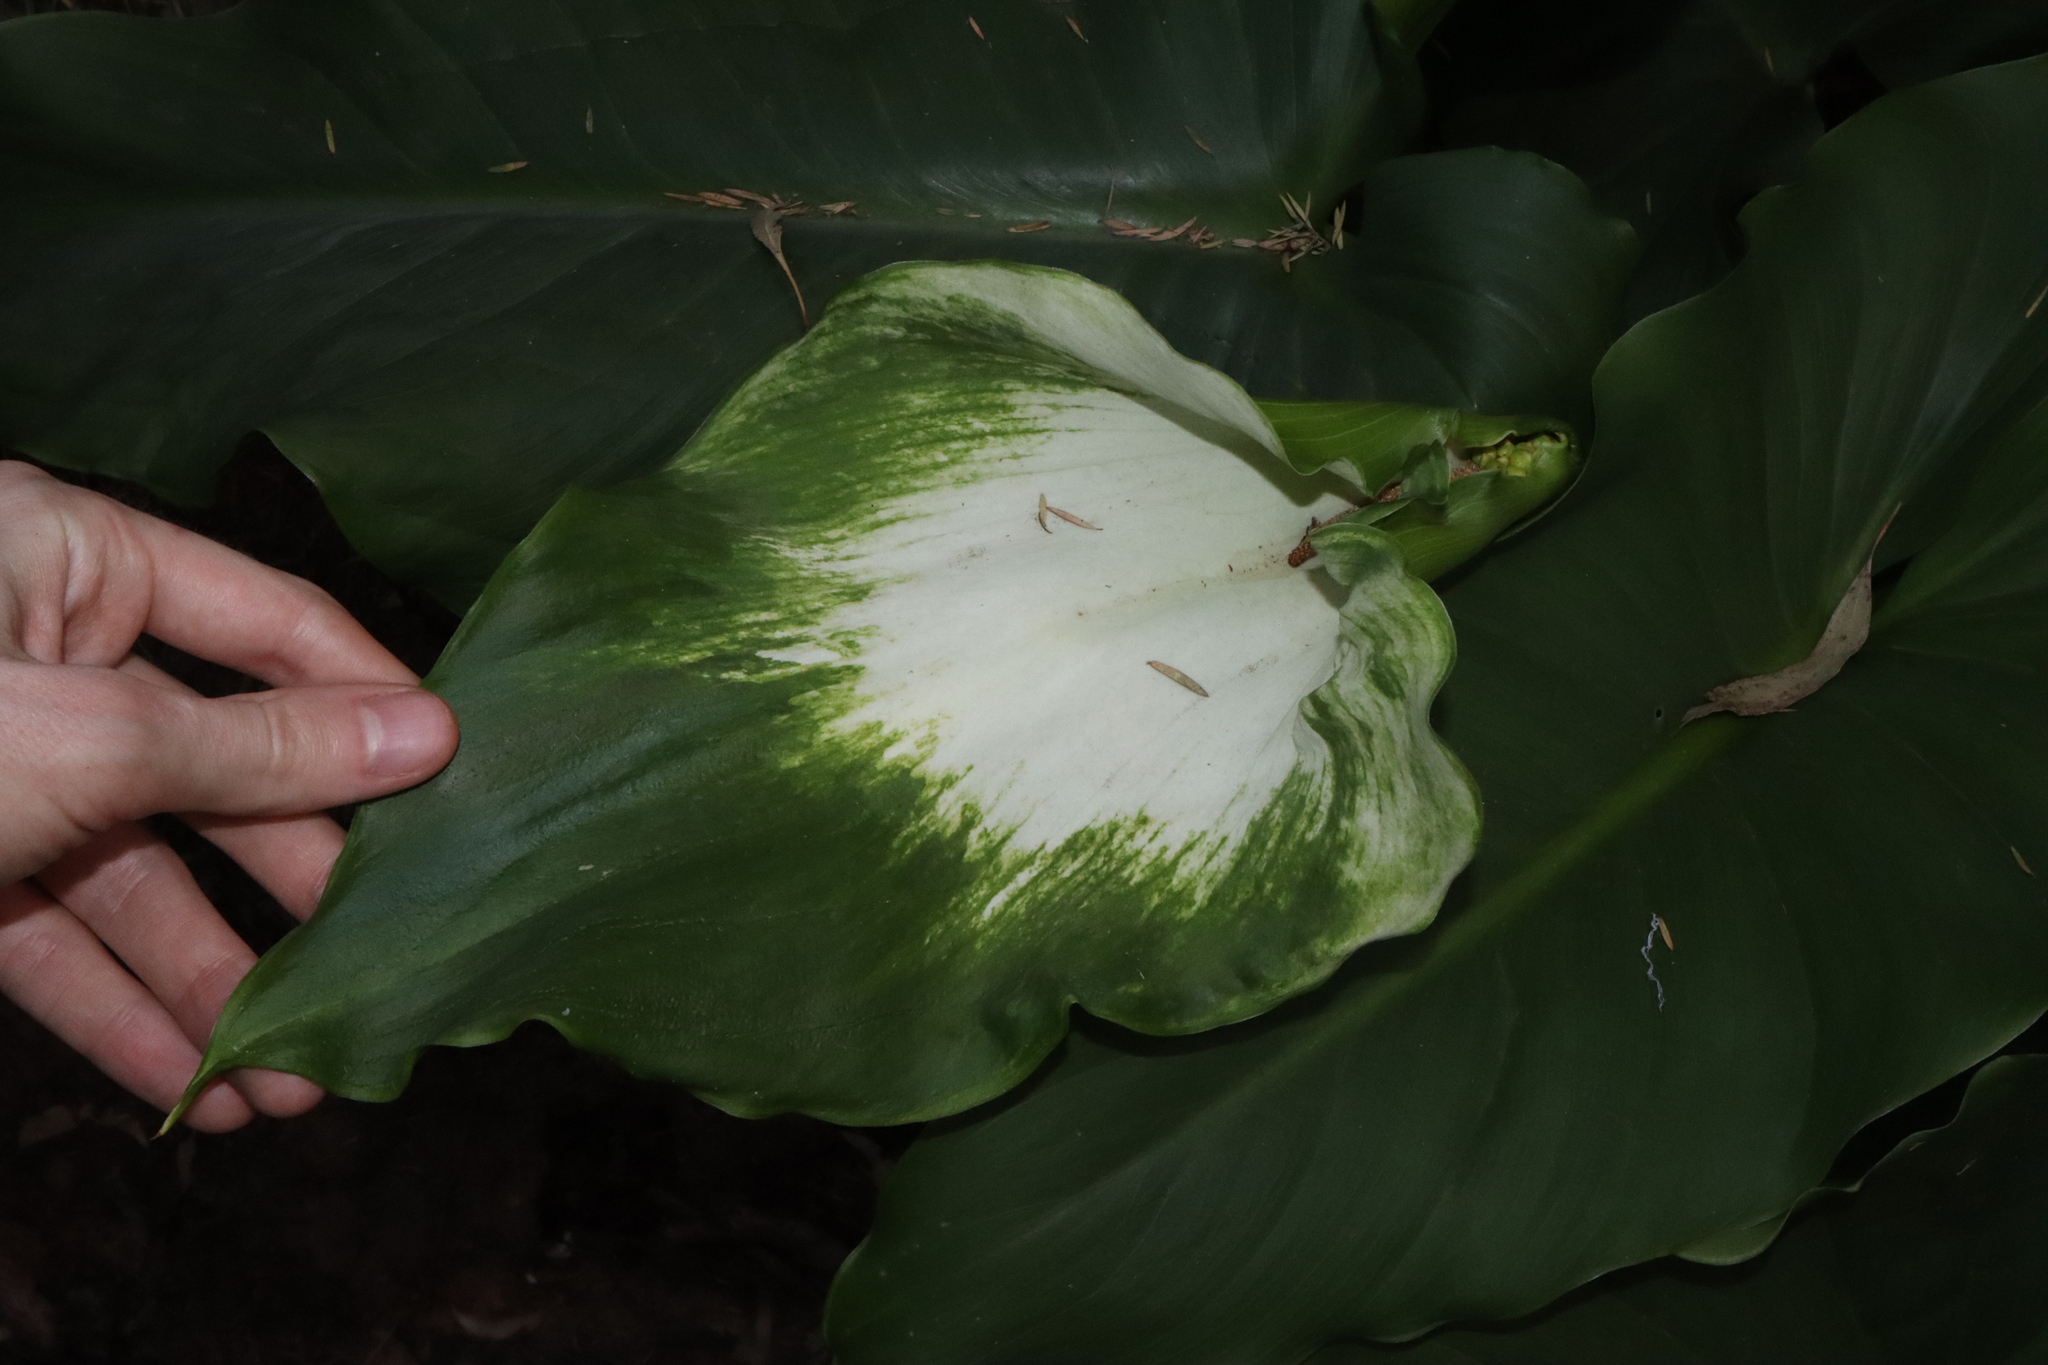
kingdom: Plantae
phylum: Tracheophyta
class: Liliopsida
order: Alismatales
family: Araceae
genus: Zantedeschia
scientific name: Zantedeschia aethiopica
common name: Altar-lily
